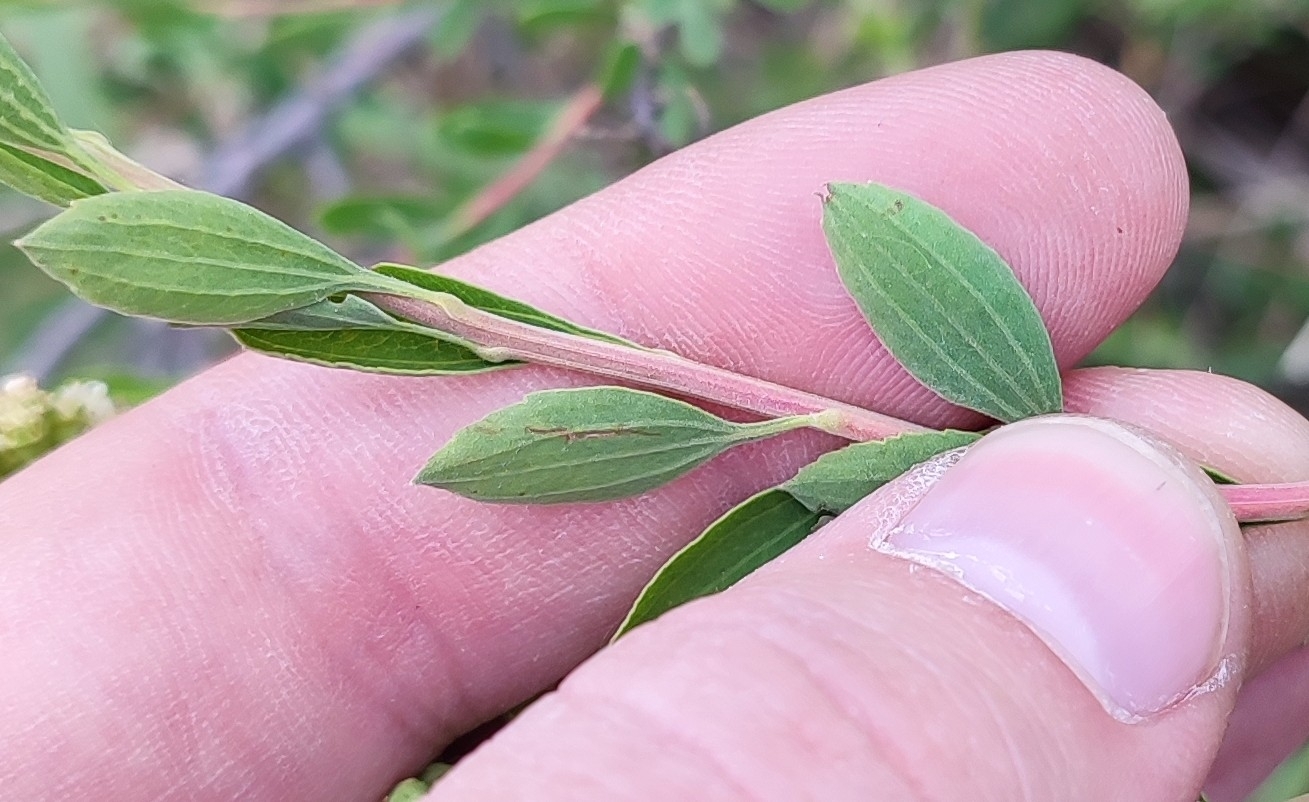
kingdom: Plantae
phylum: Tracheophyta
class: Magnoliopsida
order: Rosales
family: Rosaceae
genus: Spiraea
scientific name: Spiraea crenata
